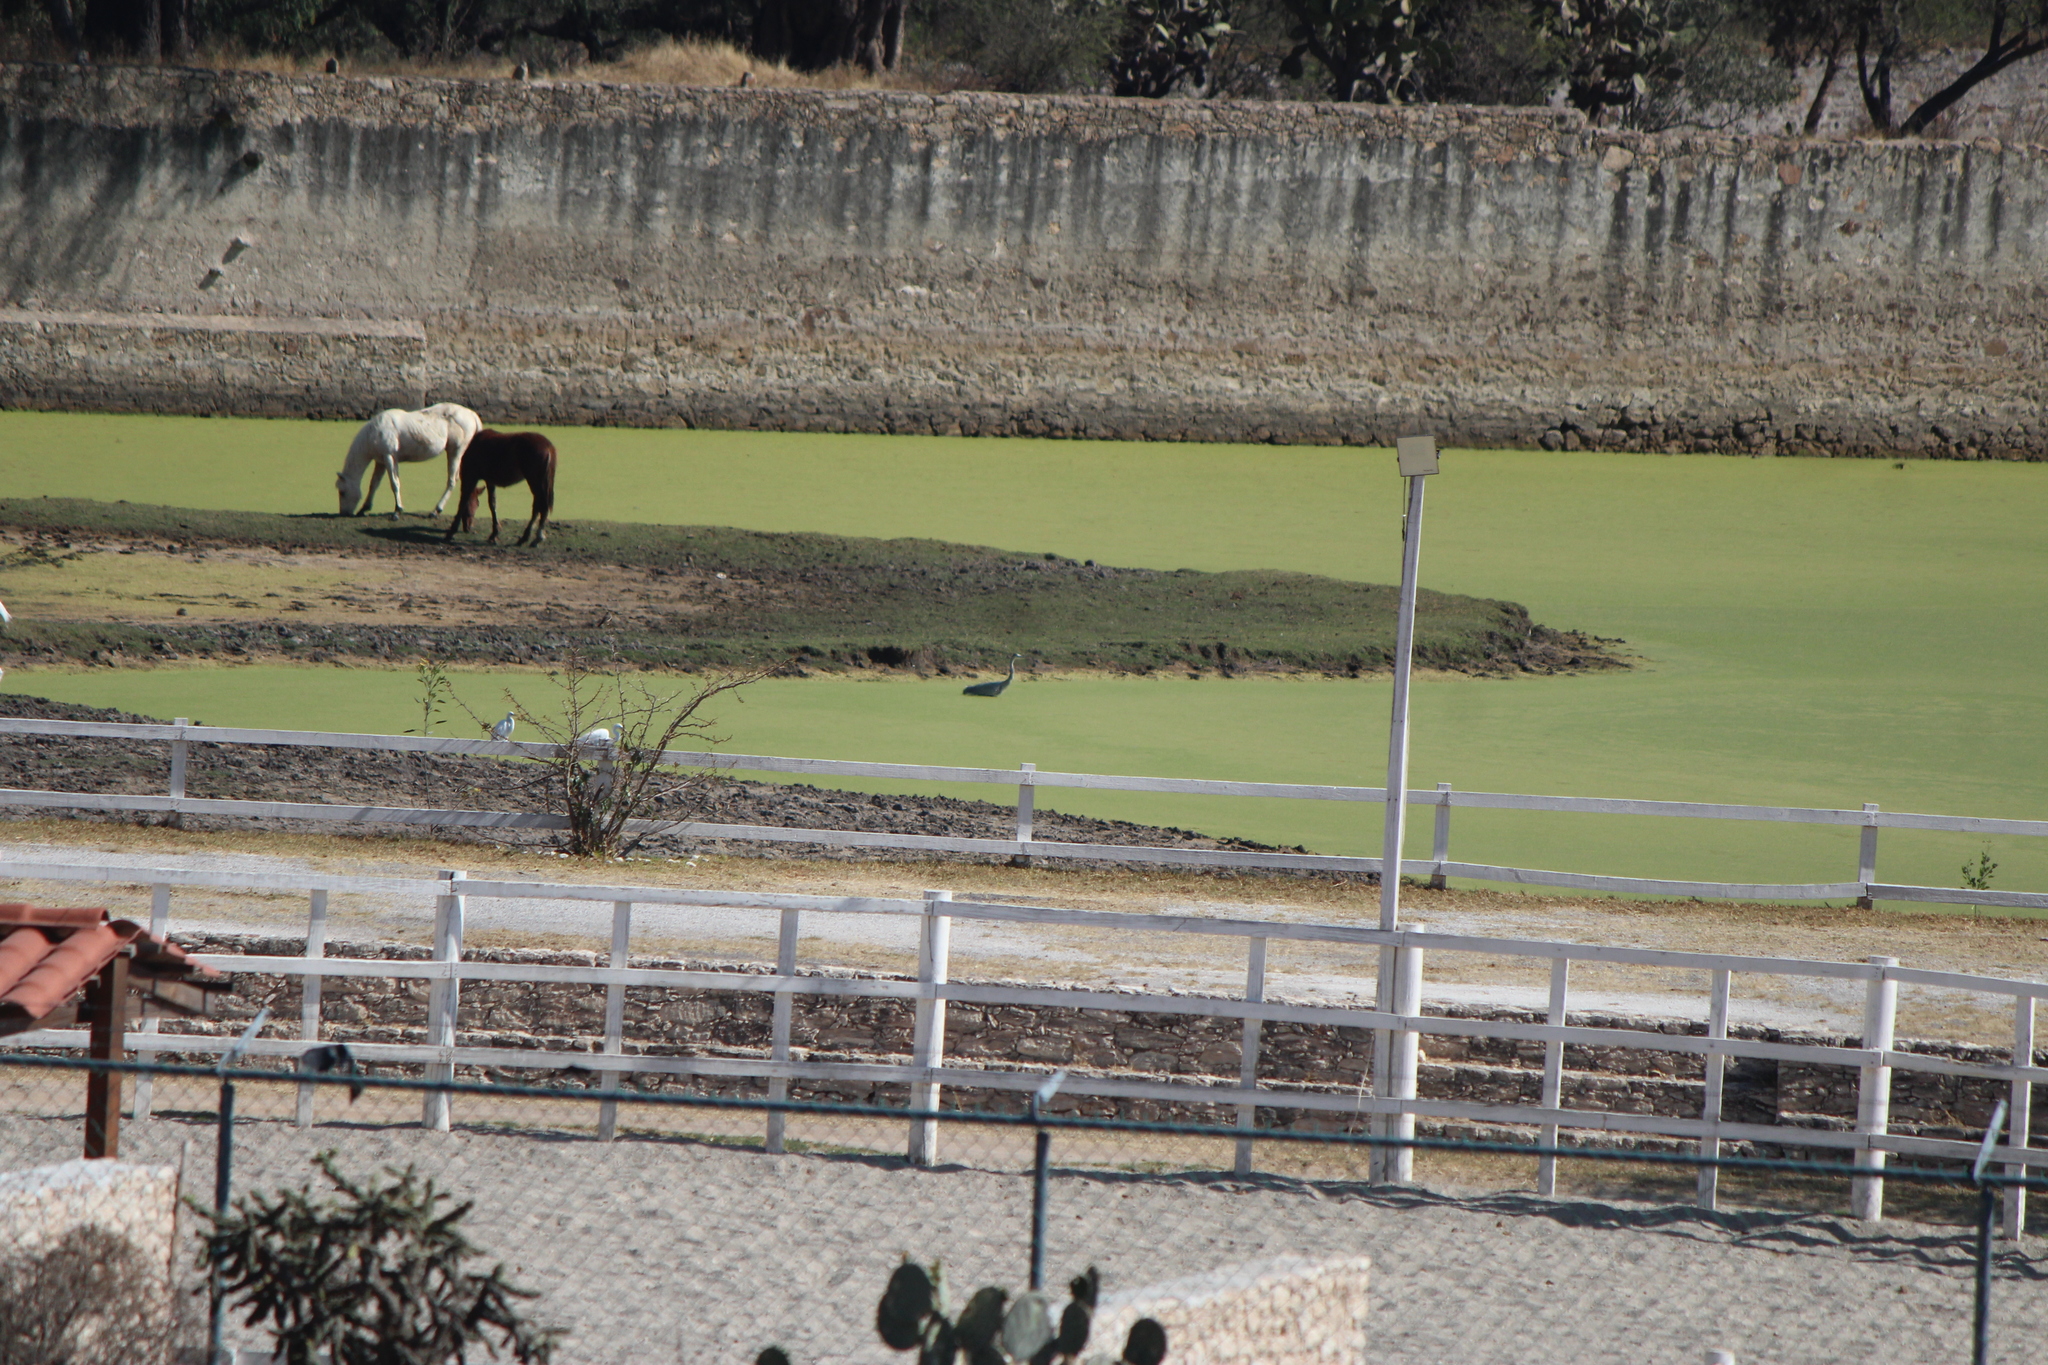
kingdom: Animalia
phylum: Chordata
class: Aves
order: Pelecaniformes
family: Ardeidae
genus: Ardea
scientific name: Ardea herodias
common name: Great blue heron
